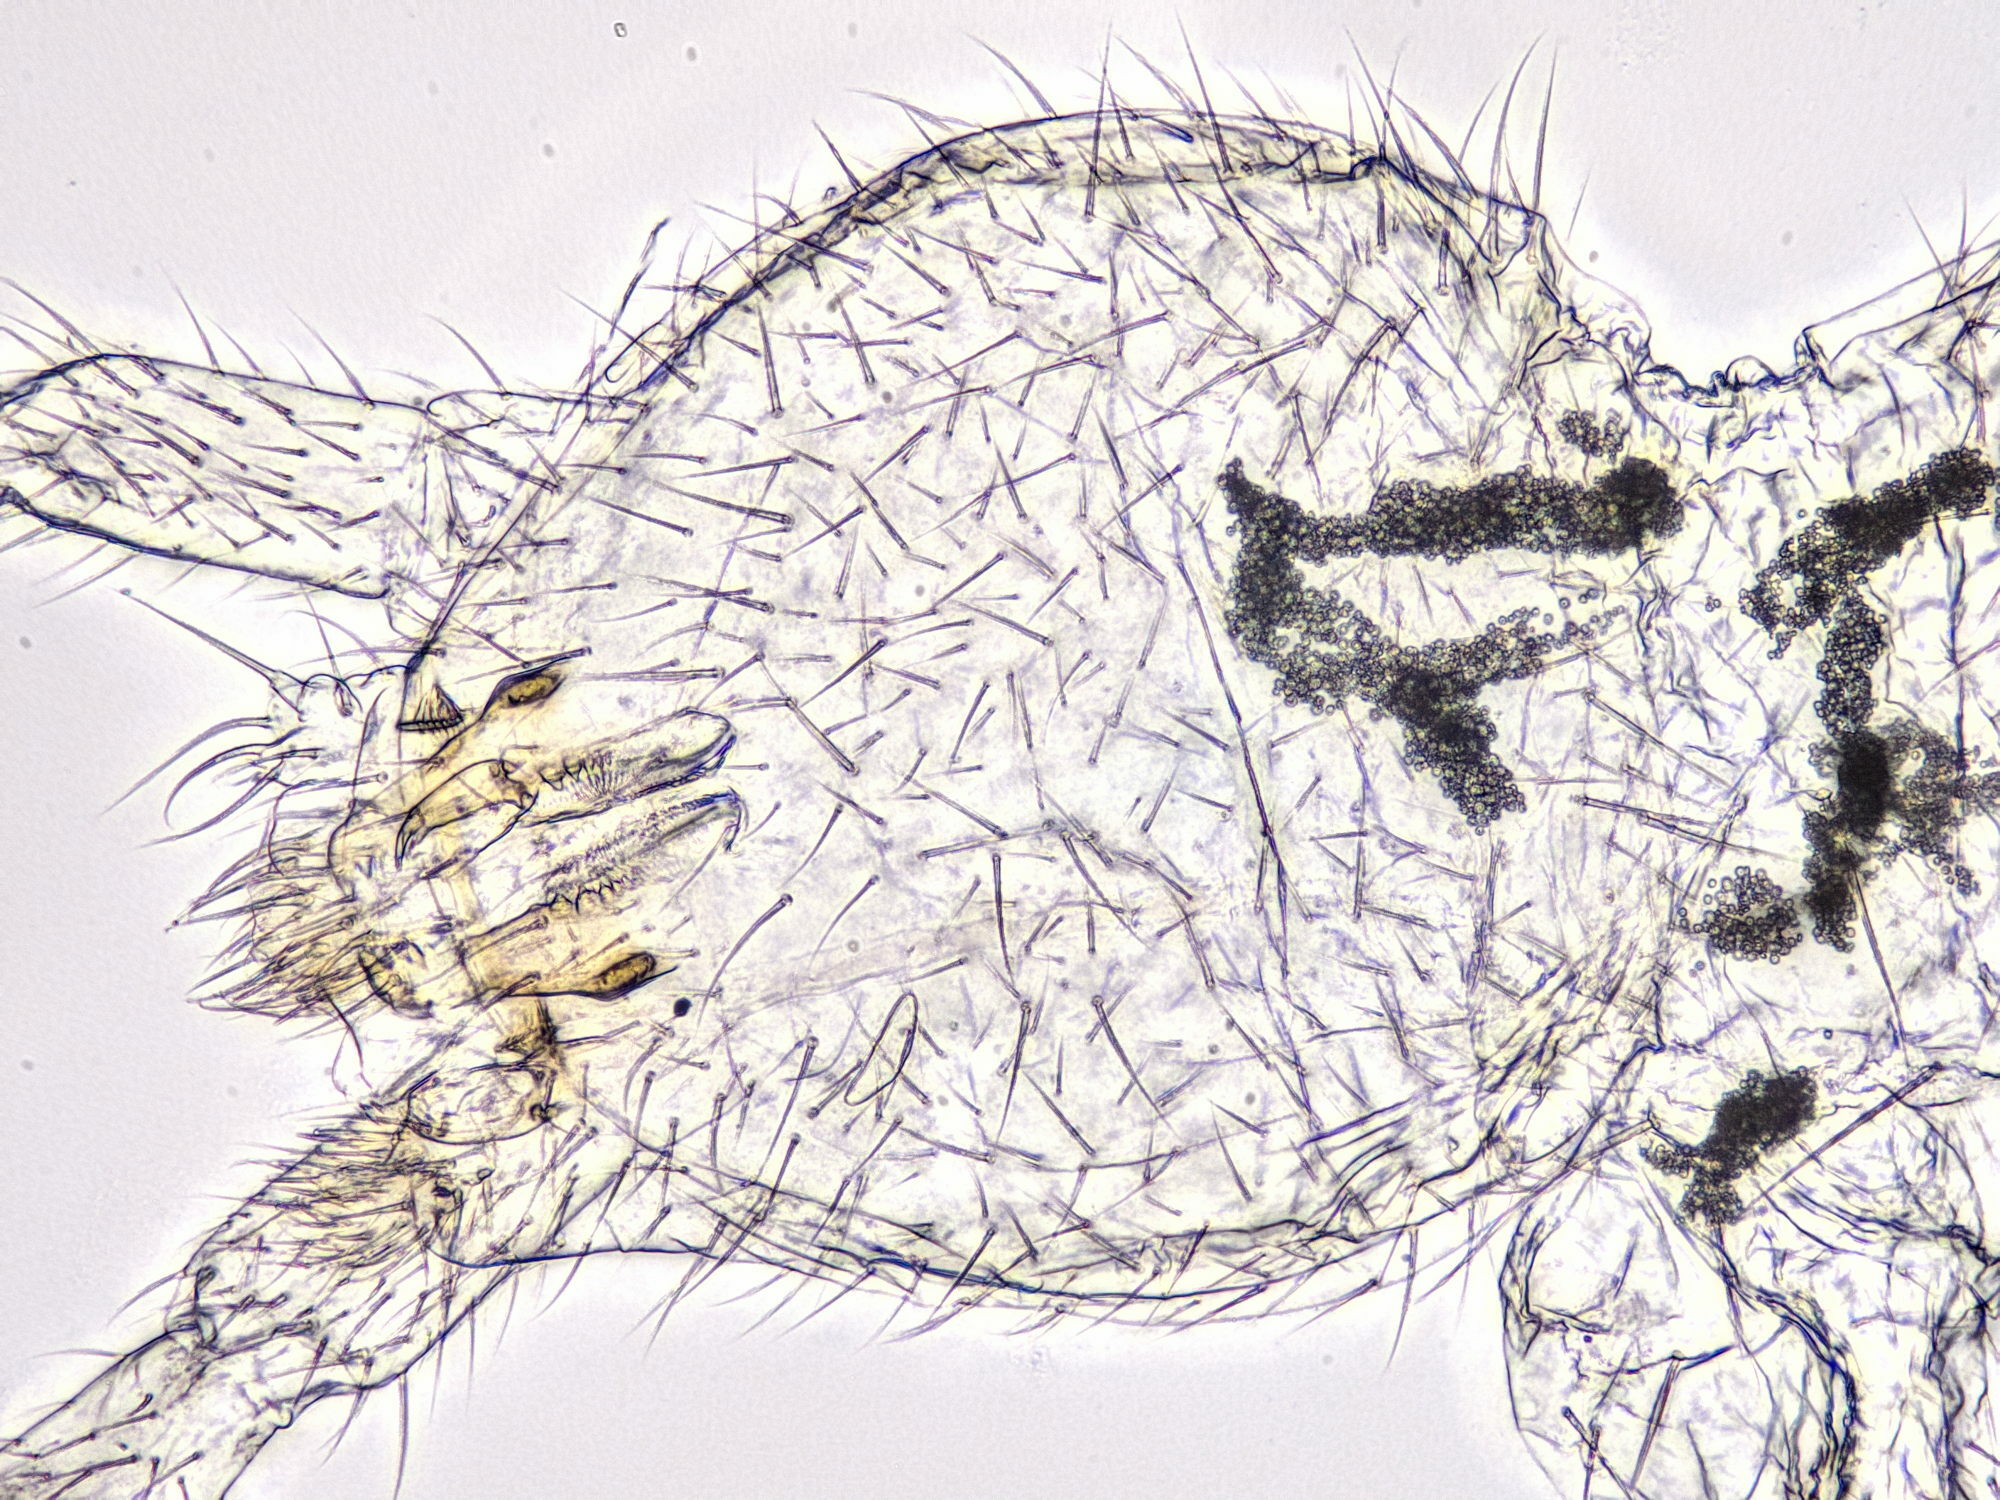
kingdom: Animalia
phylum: Arthropoda
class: Collembola
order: Entomobryomorpha
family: Isotomidae
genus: Folsomia
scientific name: Folsomia candida
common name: Springtail
